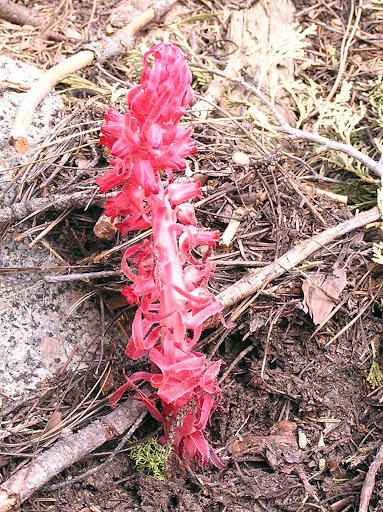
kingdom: Plantae
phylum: Tracheophyta
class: Magnoliopsida
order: Ericales
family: Ericaceae
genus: Sarcodes
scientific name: Sarcodes sanguinea
